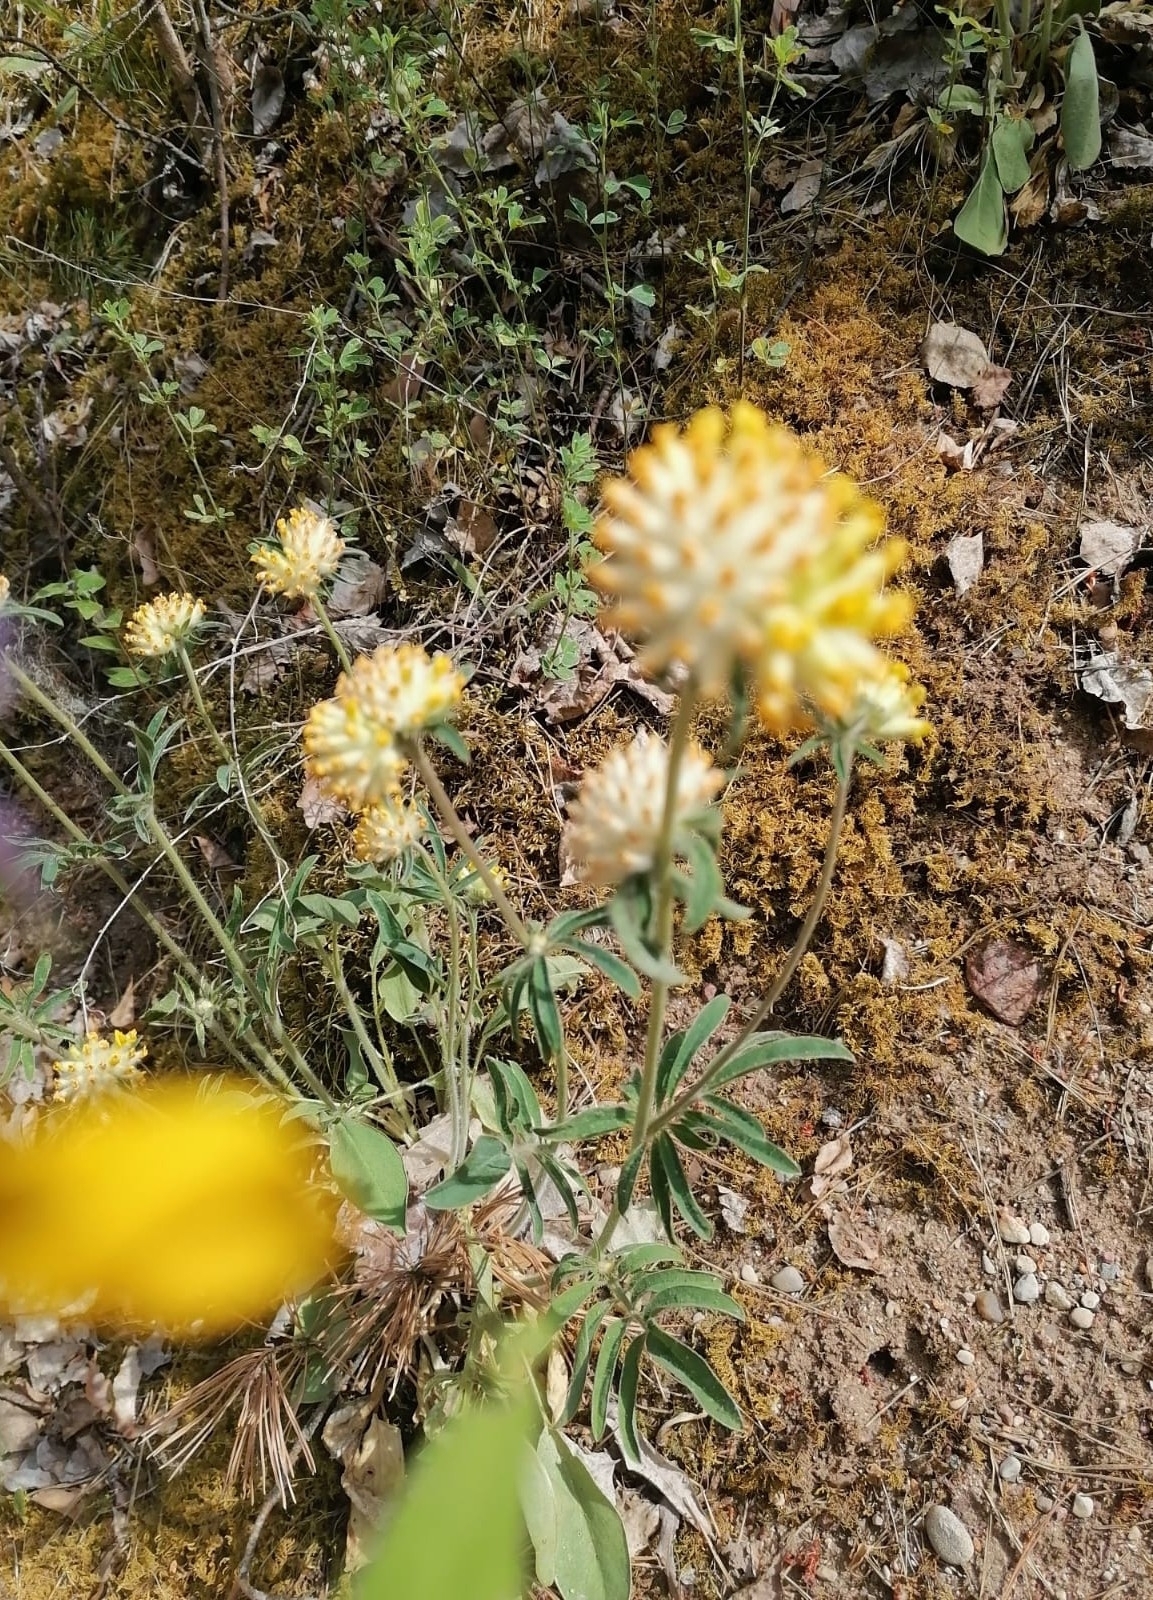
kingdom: Plantae
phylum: Tracheophyta
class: Magnoliopsida
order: Fabales
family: Fabaceae
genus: Anthyllis
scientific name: Anthyllis vulneraria
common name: Kidney vetch
